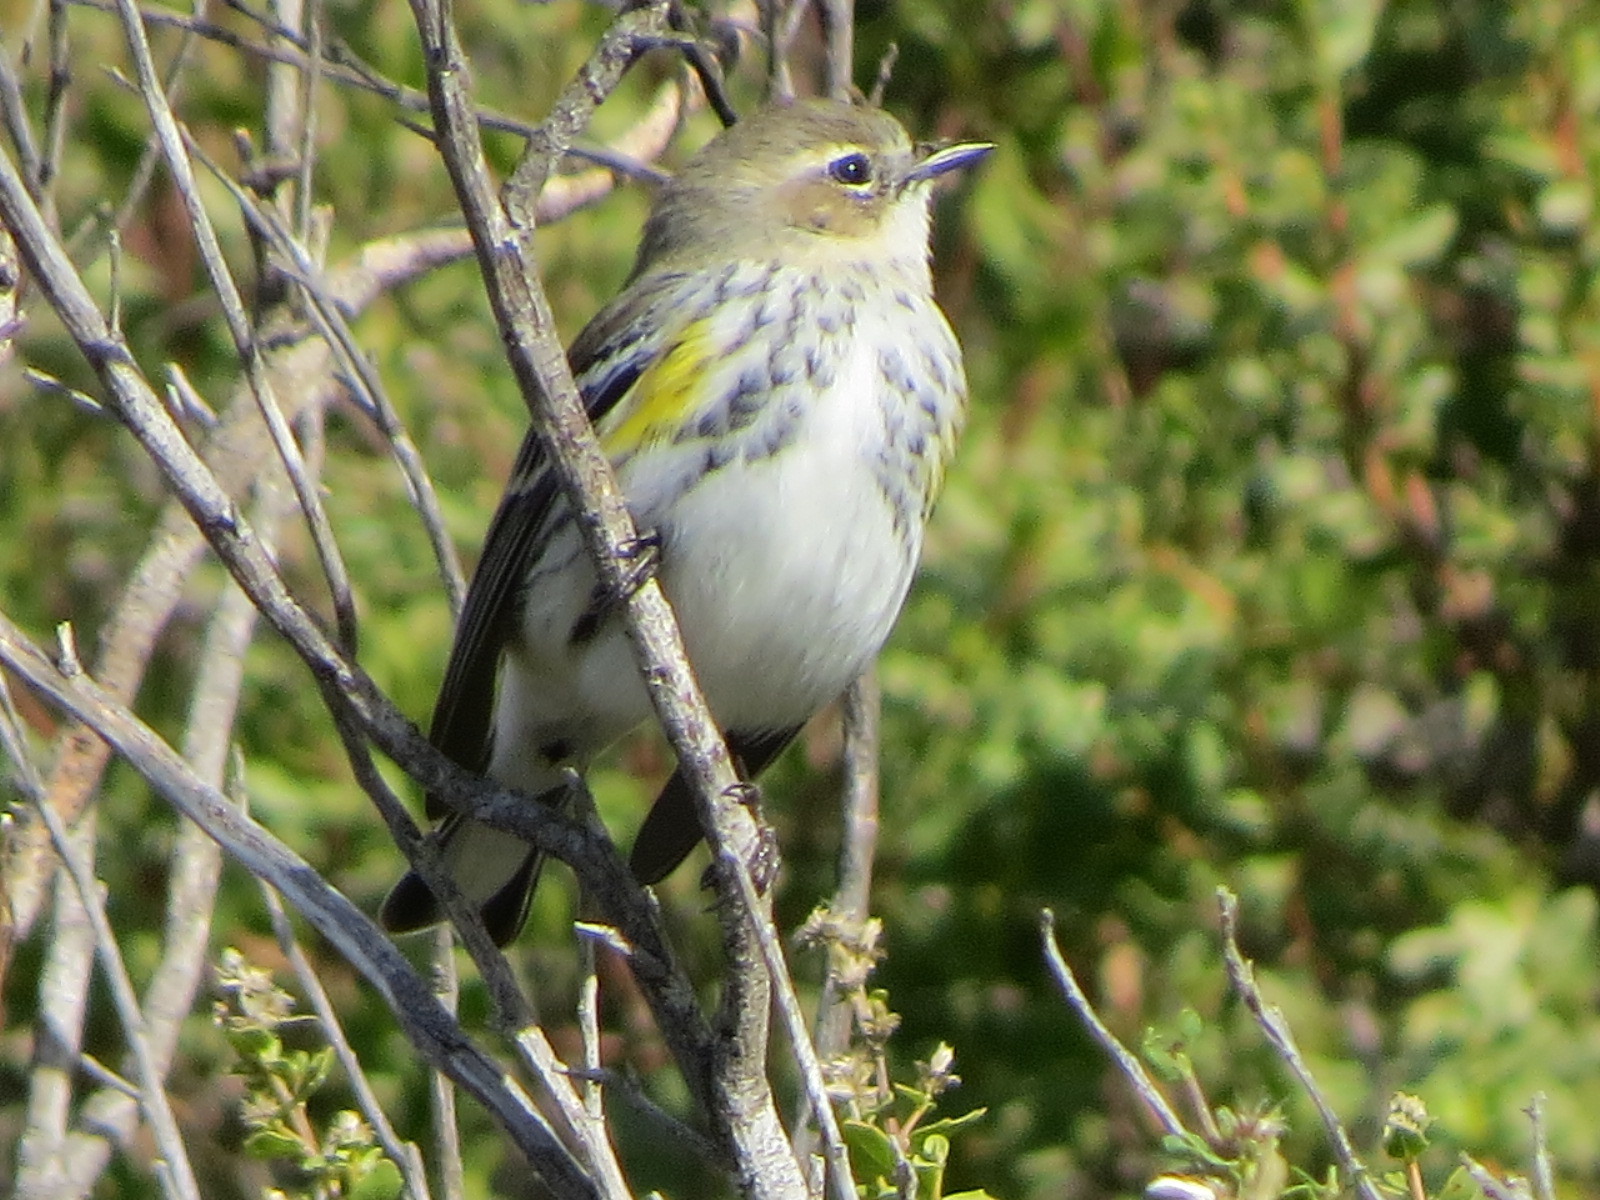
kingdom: Animalia
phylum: Chordata
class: Aves
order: Passeriformes
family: Parulidae
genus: Setophaga
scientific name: Setophaga coronata
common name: Myrtle warbler
